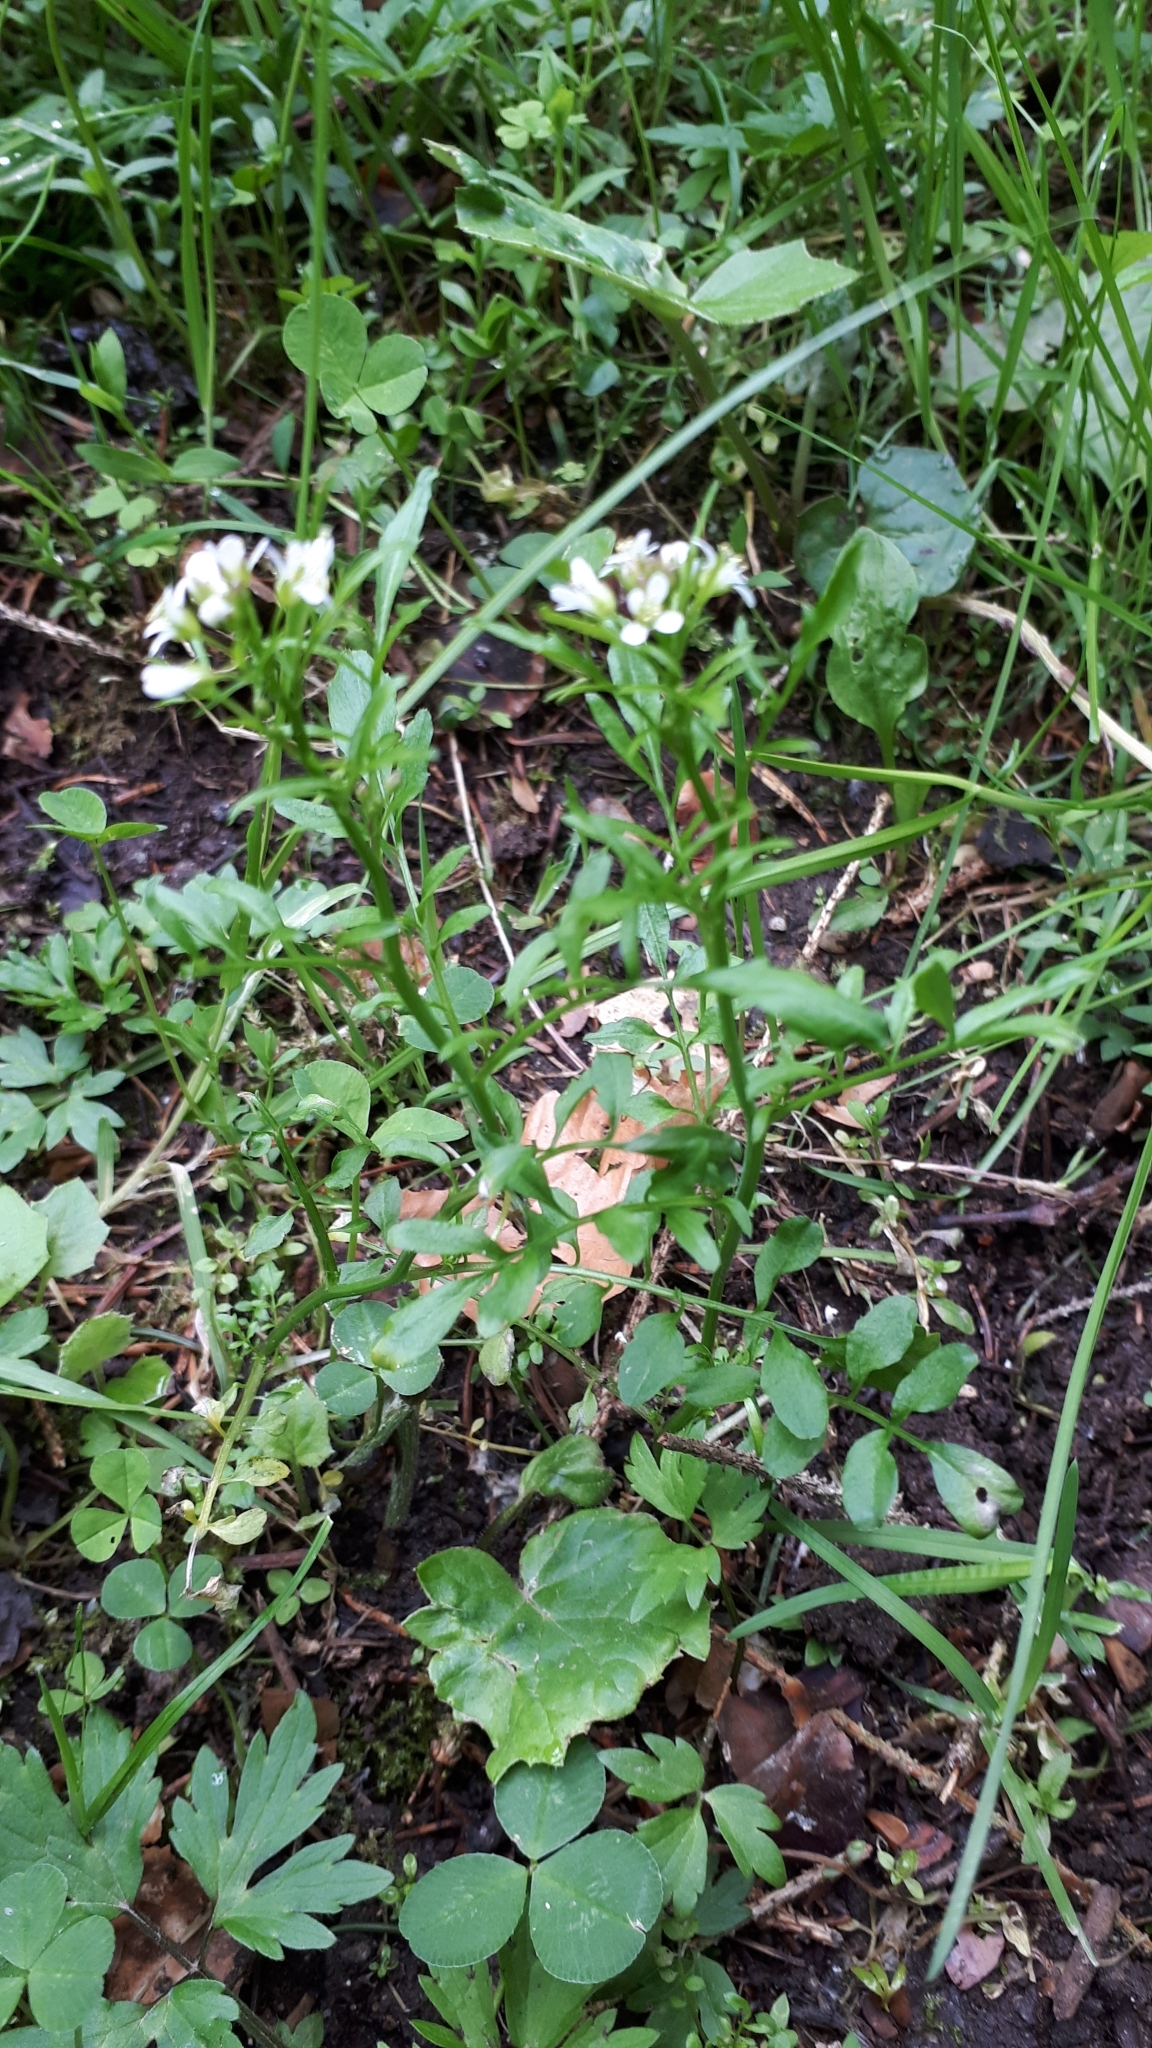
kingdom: Plantae
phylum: Tracheophyta
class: Magnoliopsida
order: Brassicales
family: Brassicaceae
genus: Cardamine
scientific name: Cardamine flexuosa
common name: Woodland bittercress
